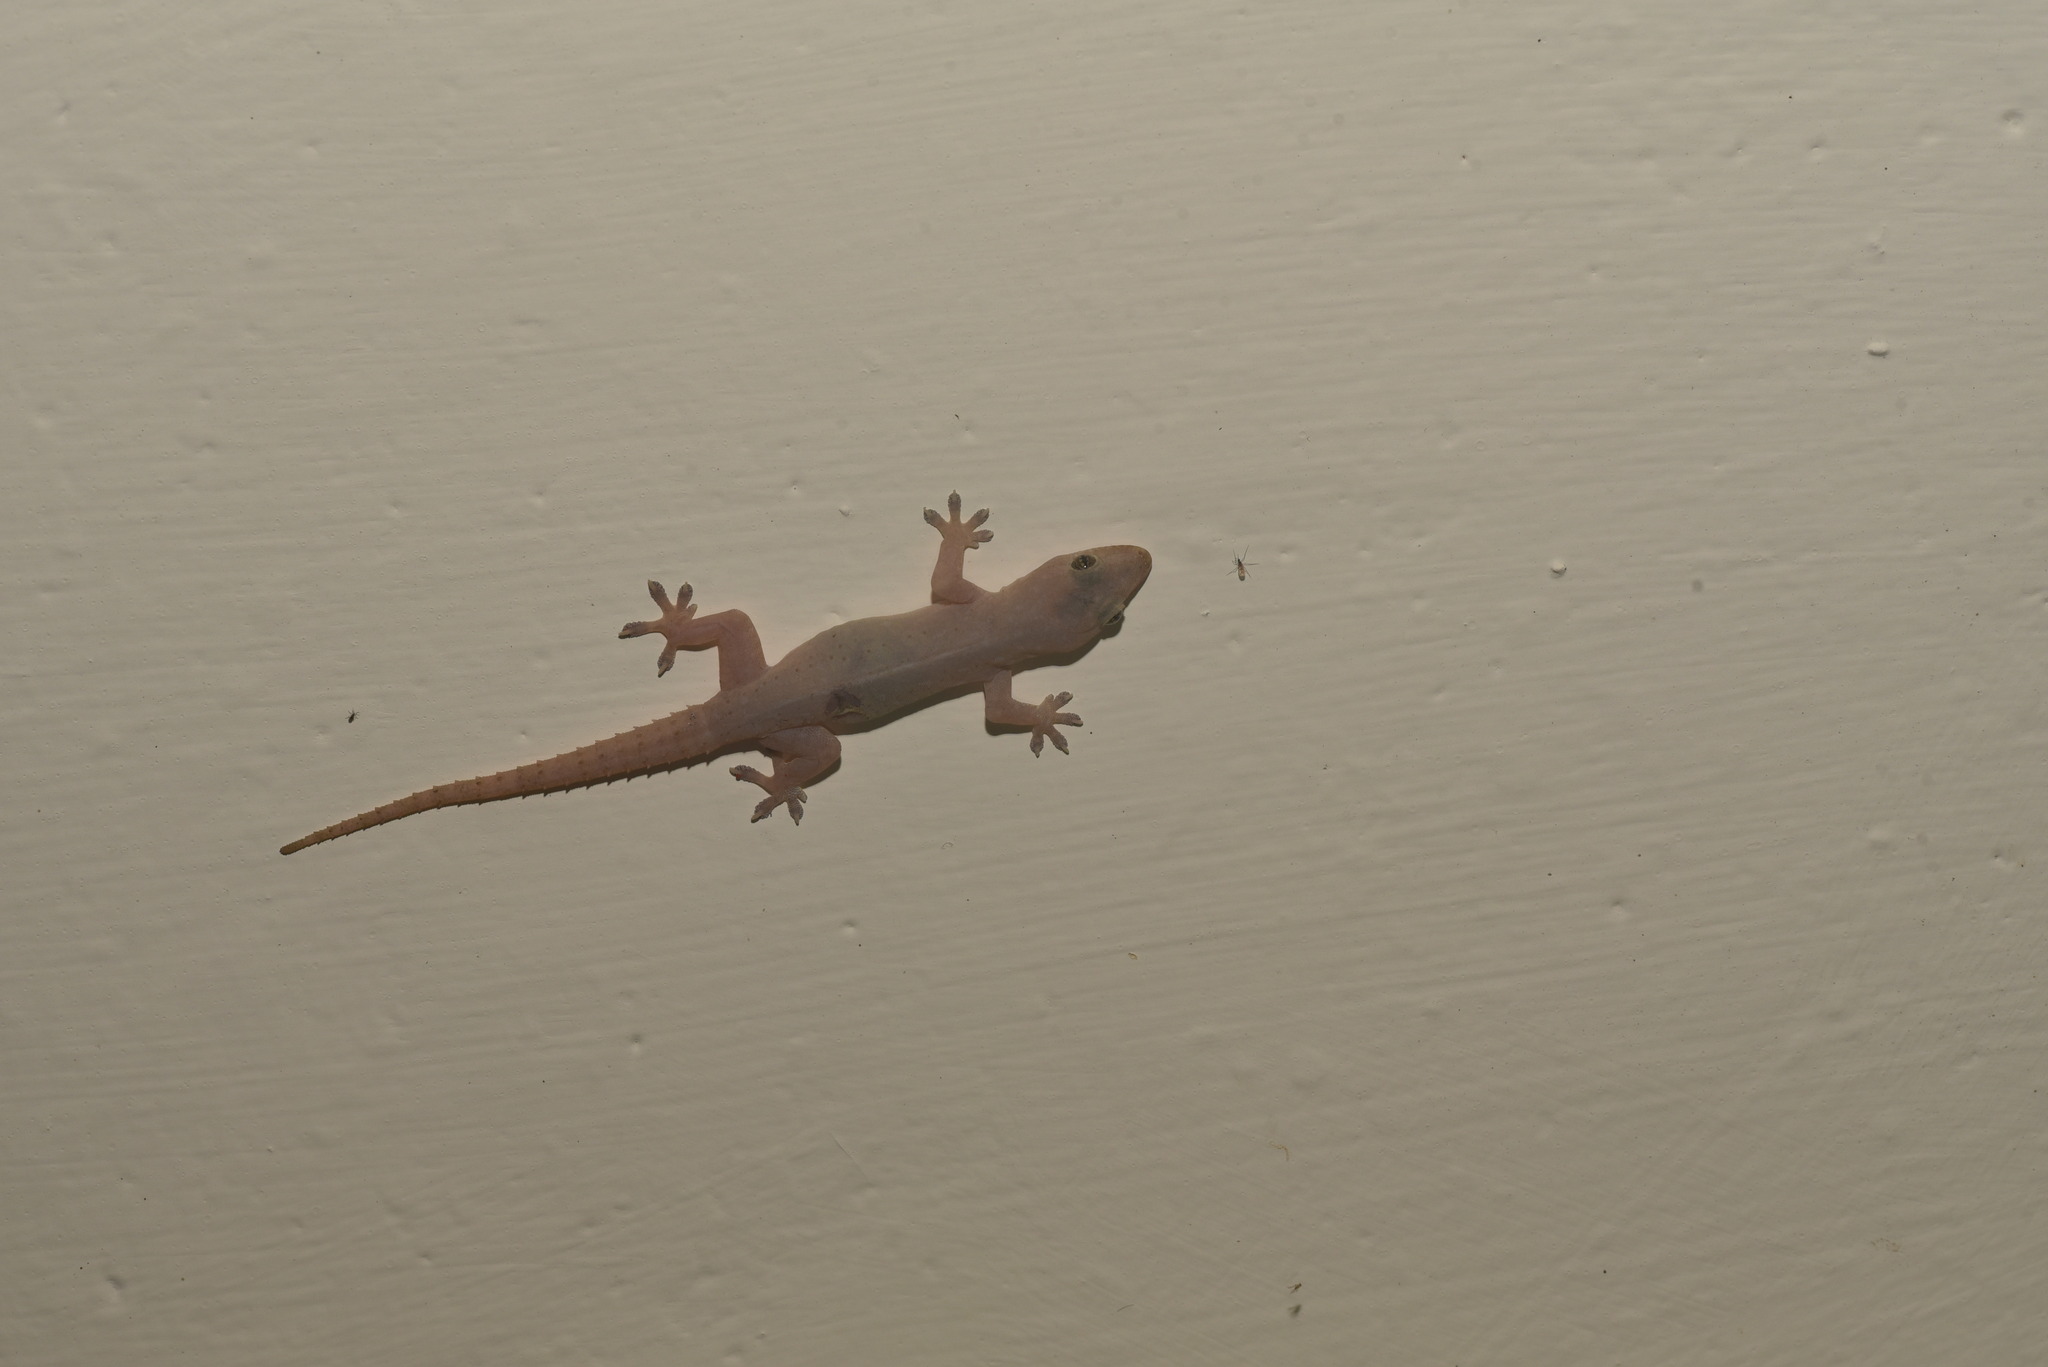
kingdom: Animalia
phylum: Chordata
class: Squamata
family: Gekkonidae
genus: Hemidactylus
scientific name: Hemidactylus frenatus
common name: Common house gecko
